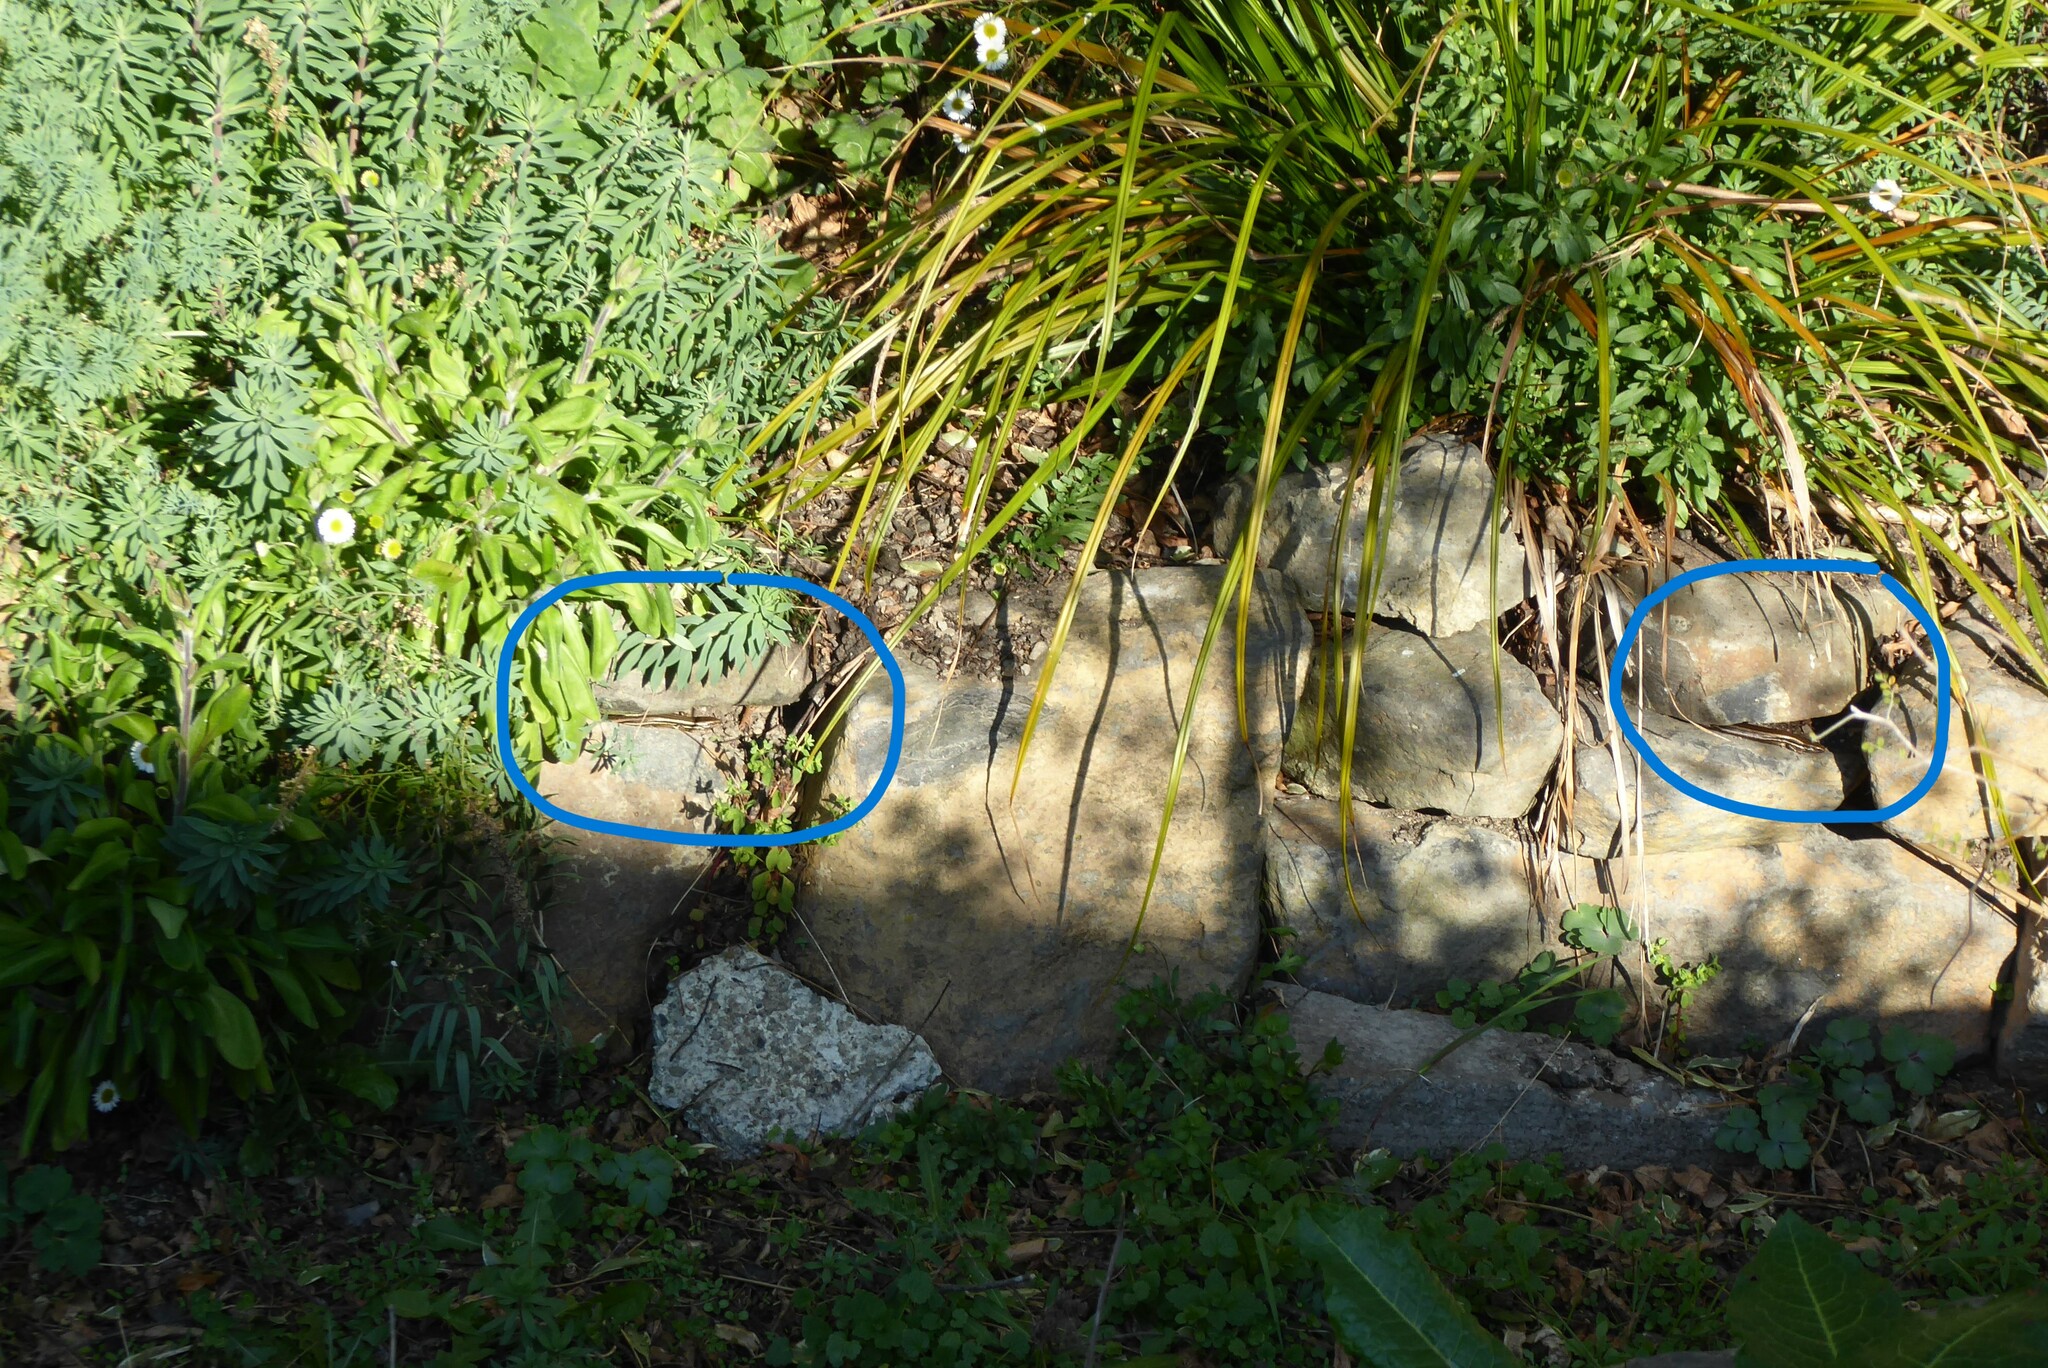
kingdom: Animalia
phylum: Chordata
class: Squamata
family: Scincidae
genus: Oligosoma
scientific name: Oligosoma polychroma
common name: Common new zealand skink
